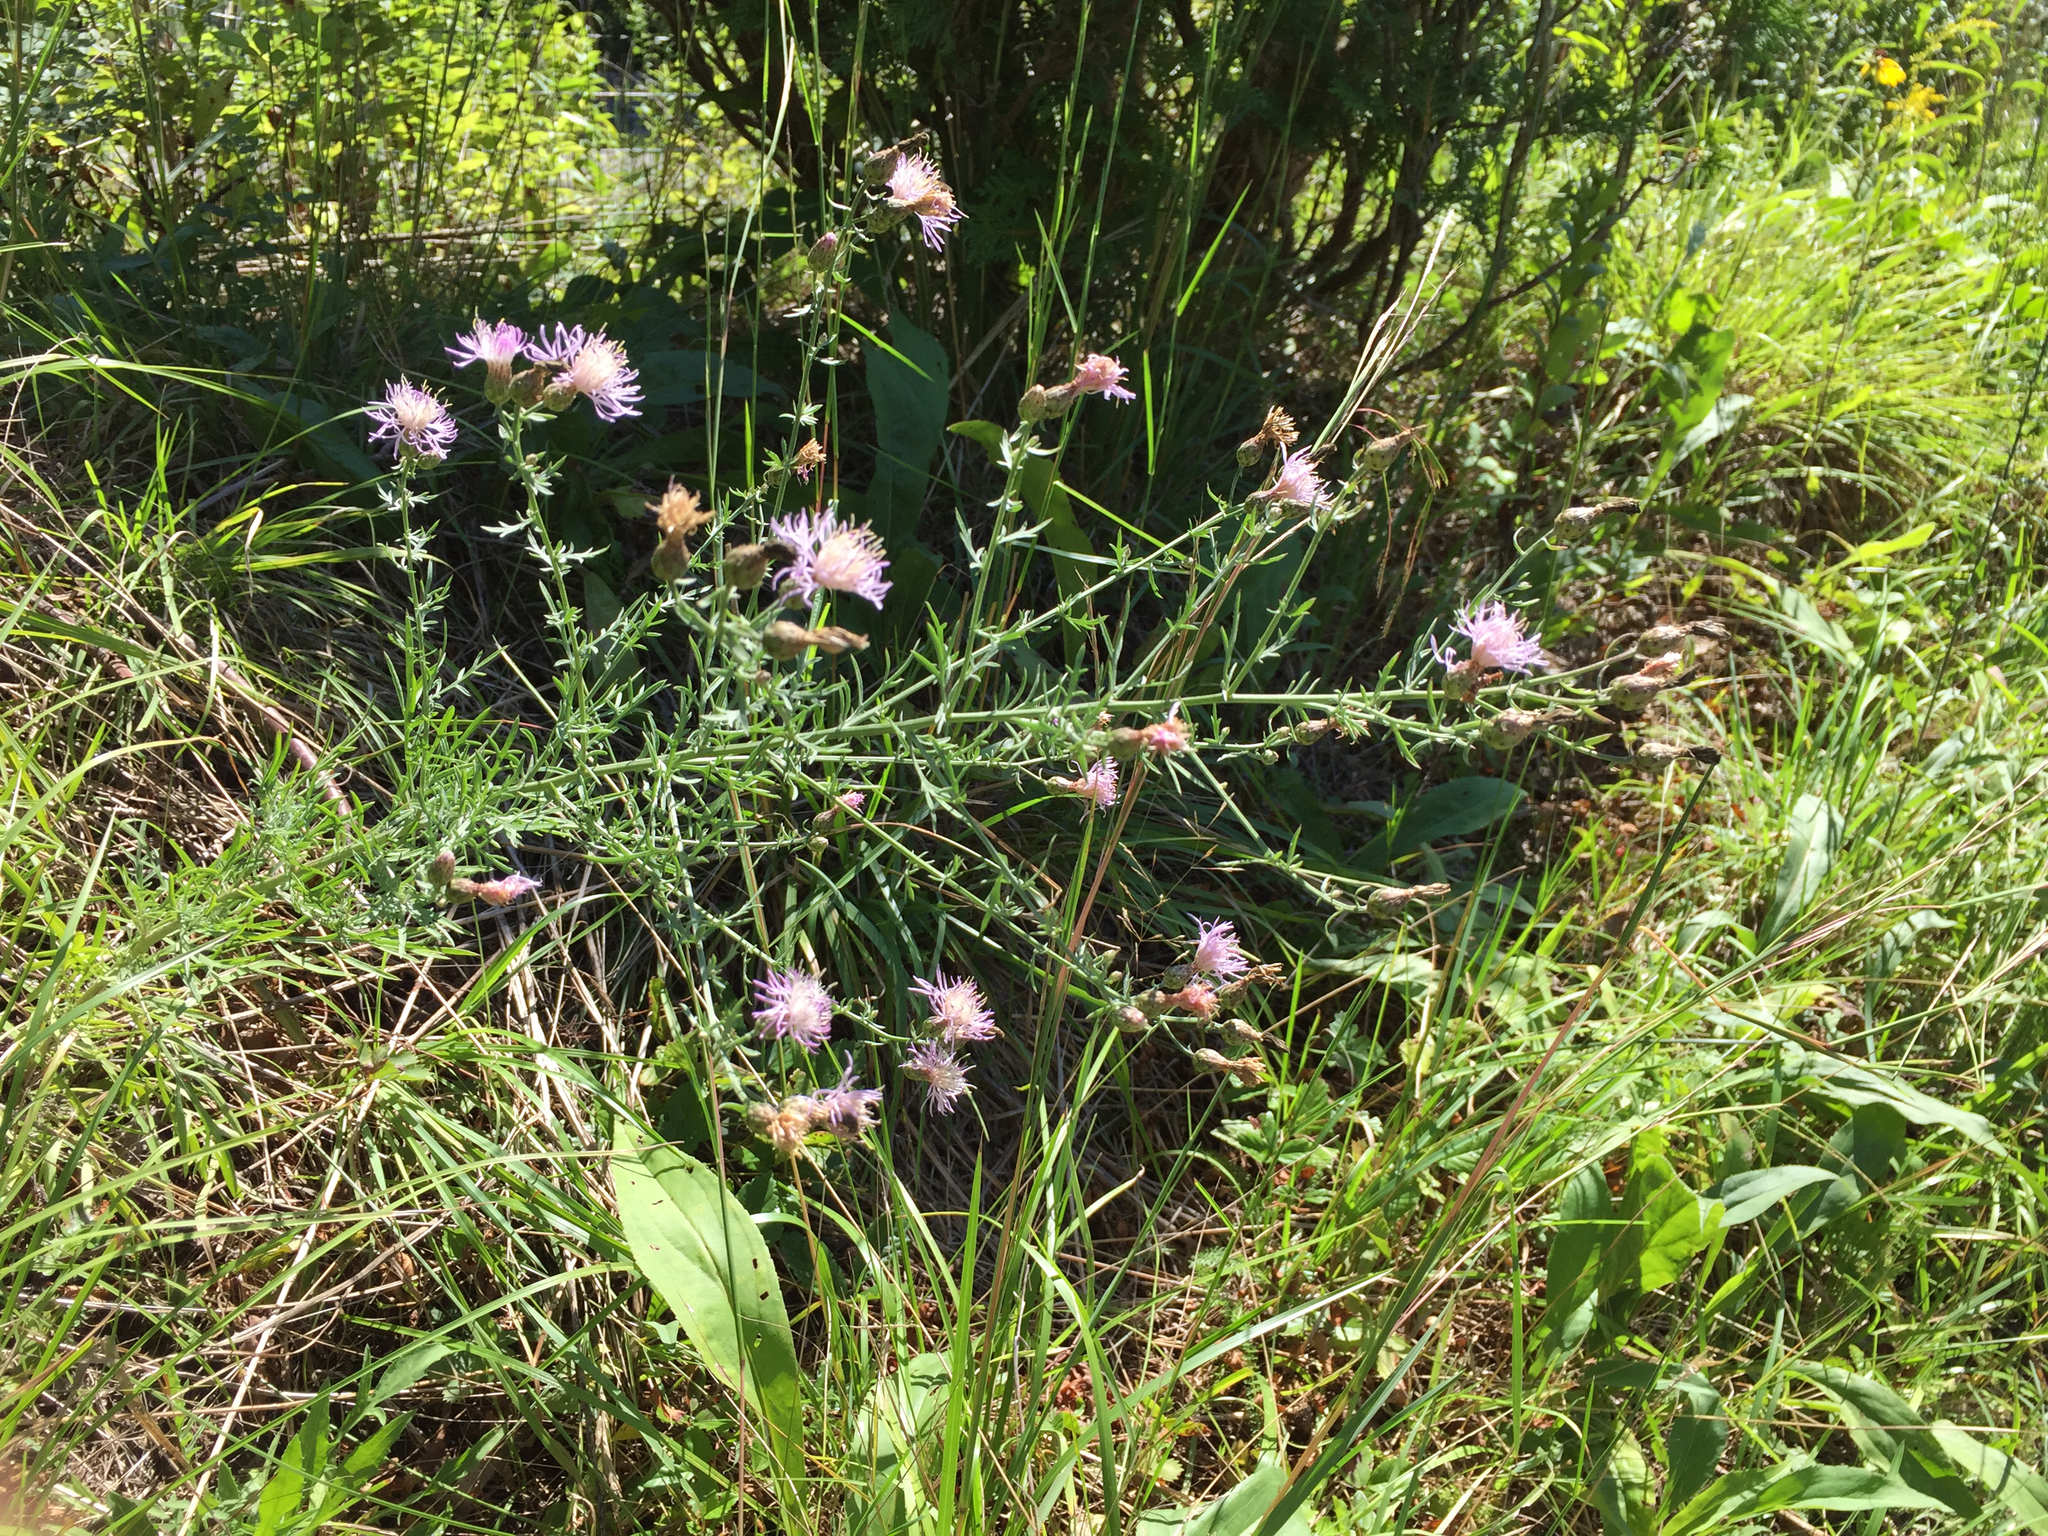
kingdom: Plantae
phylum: Tracheophyta
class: Magnoliopsida
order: Asterales
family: Asteraceae
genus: Centaurea
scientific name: Centaurea stoebe
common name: Spotted knapweed
